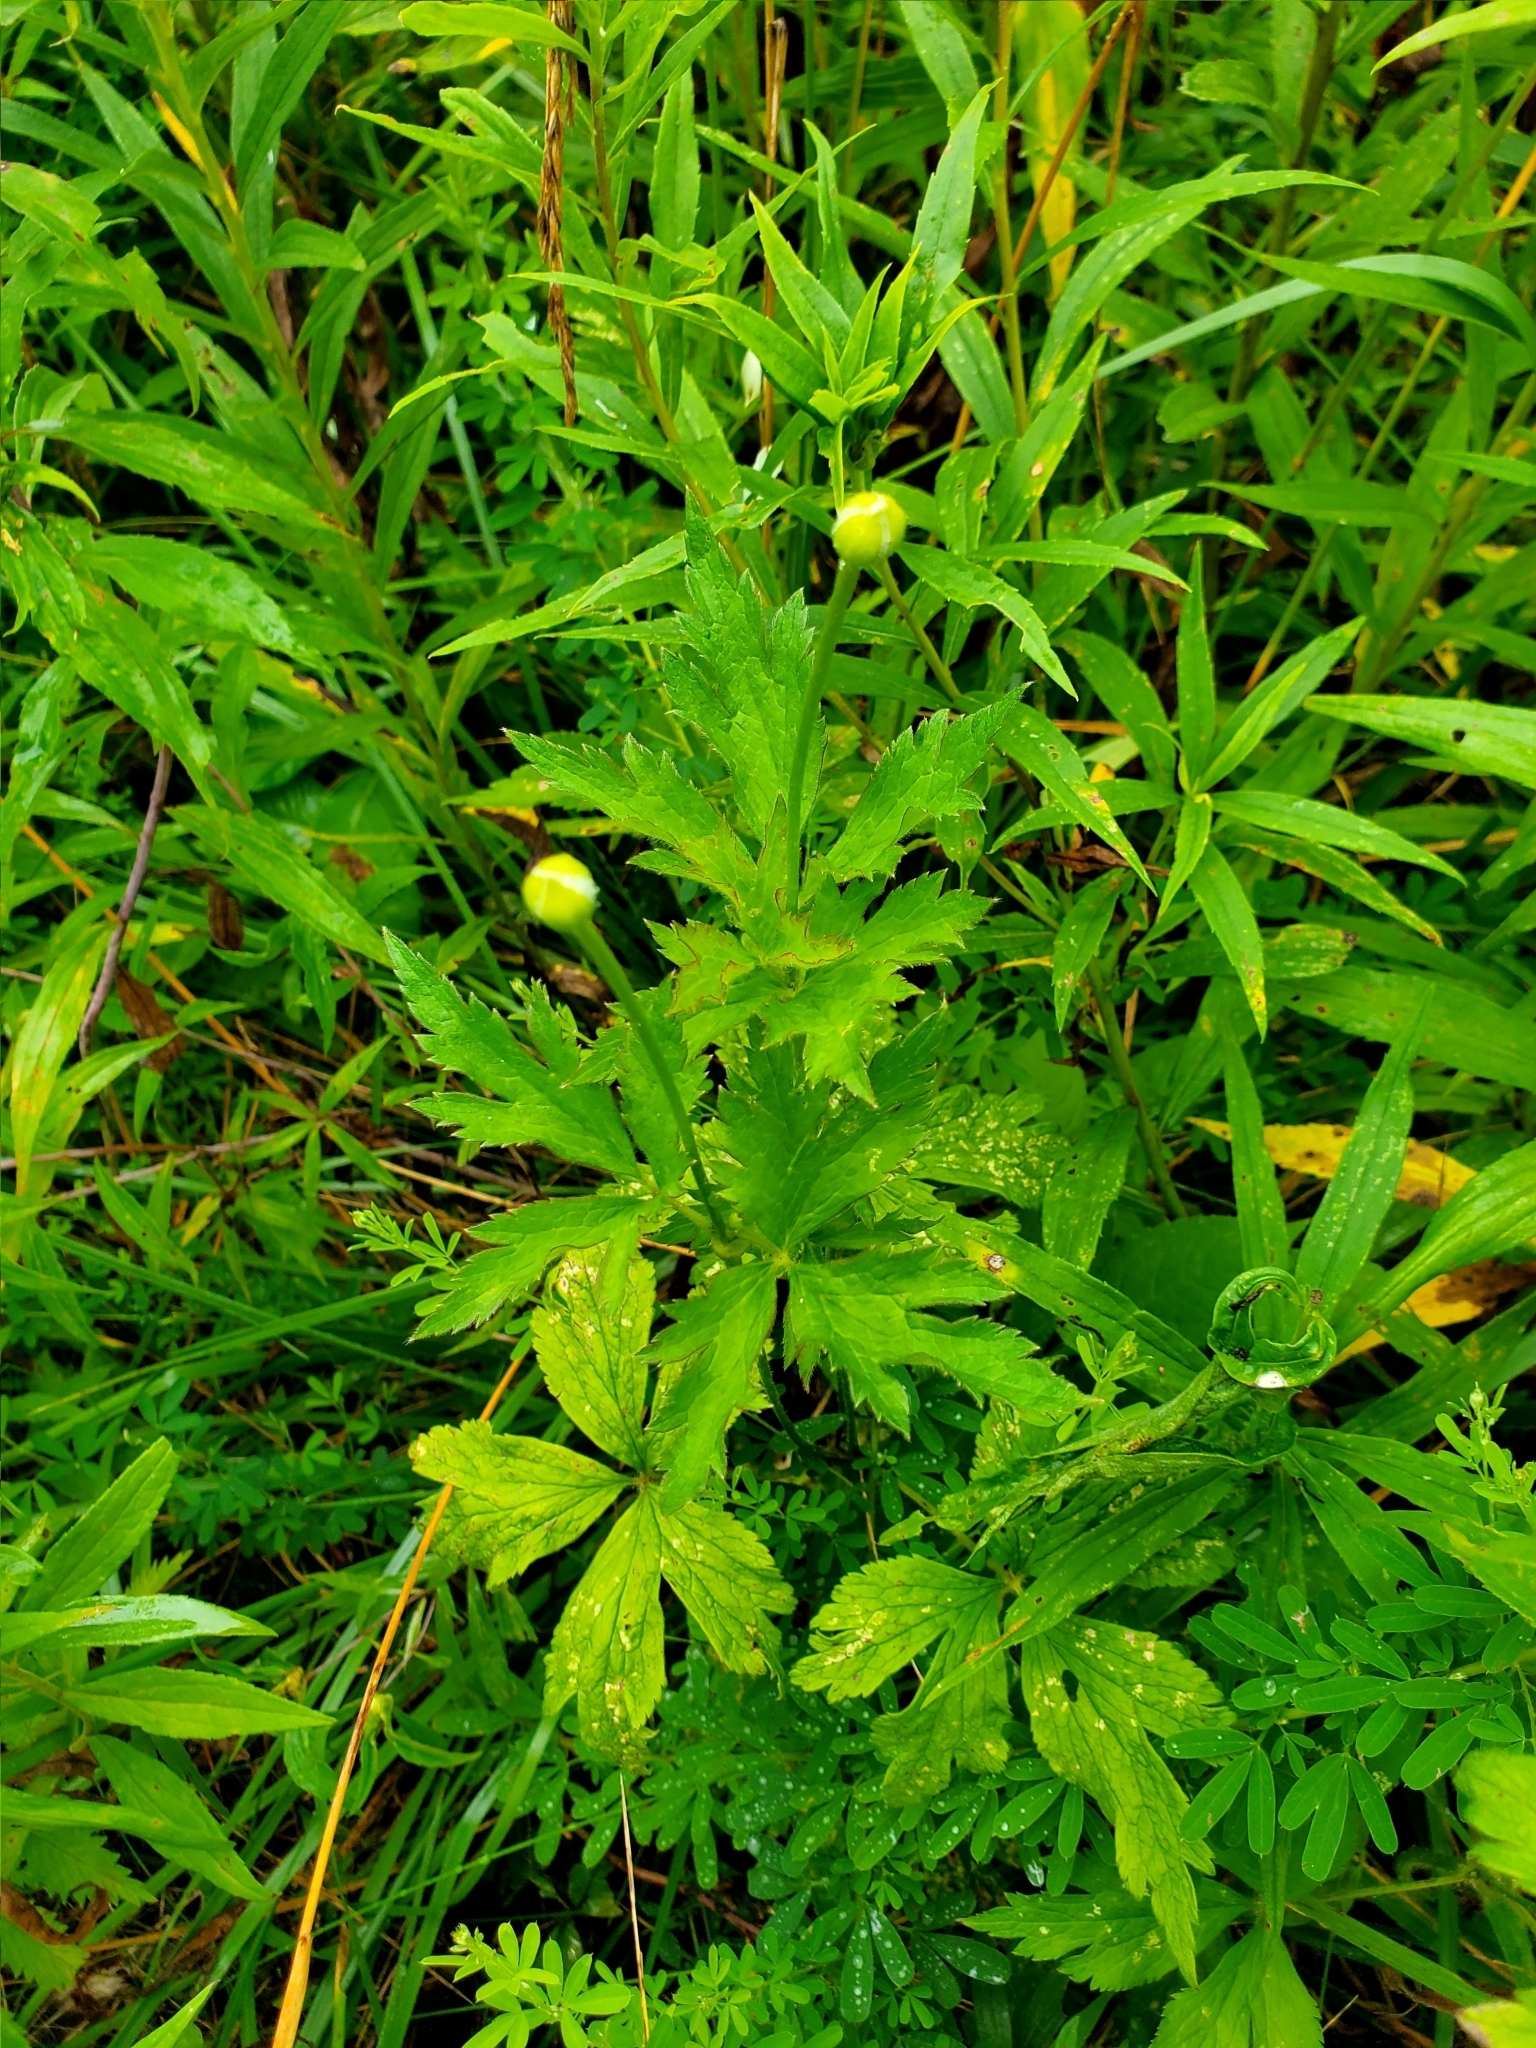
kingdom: Plantae
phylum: Tracheophyta
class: Magnoliopsida
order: Ranunculales
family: Ranunculaceae
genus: Anemone
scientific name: Anemone virginiana
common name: Tall anemone
